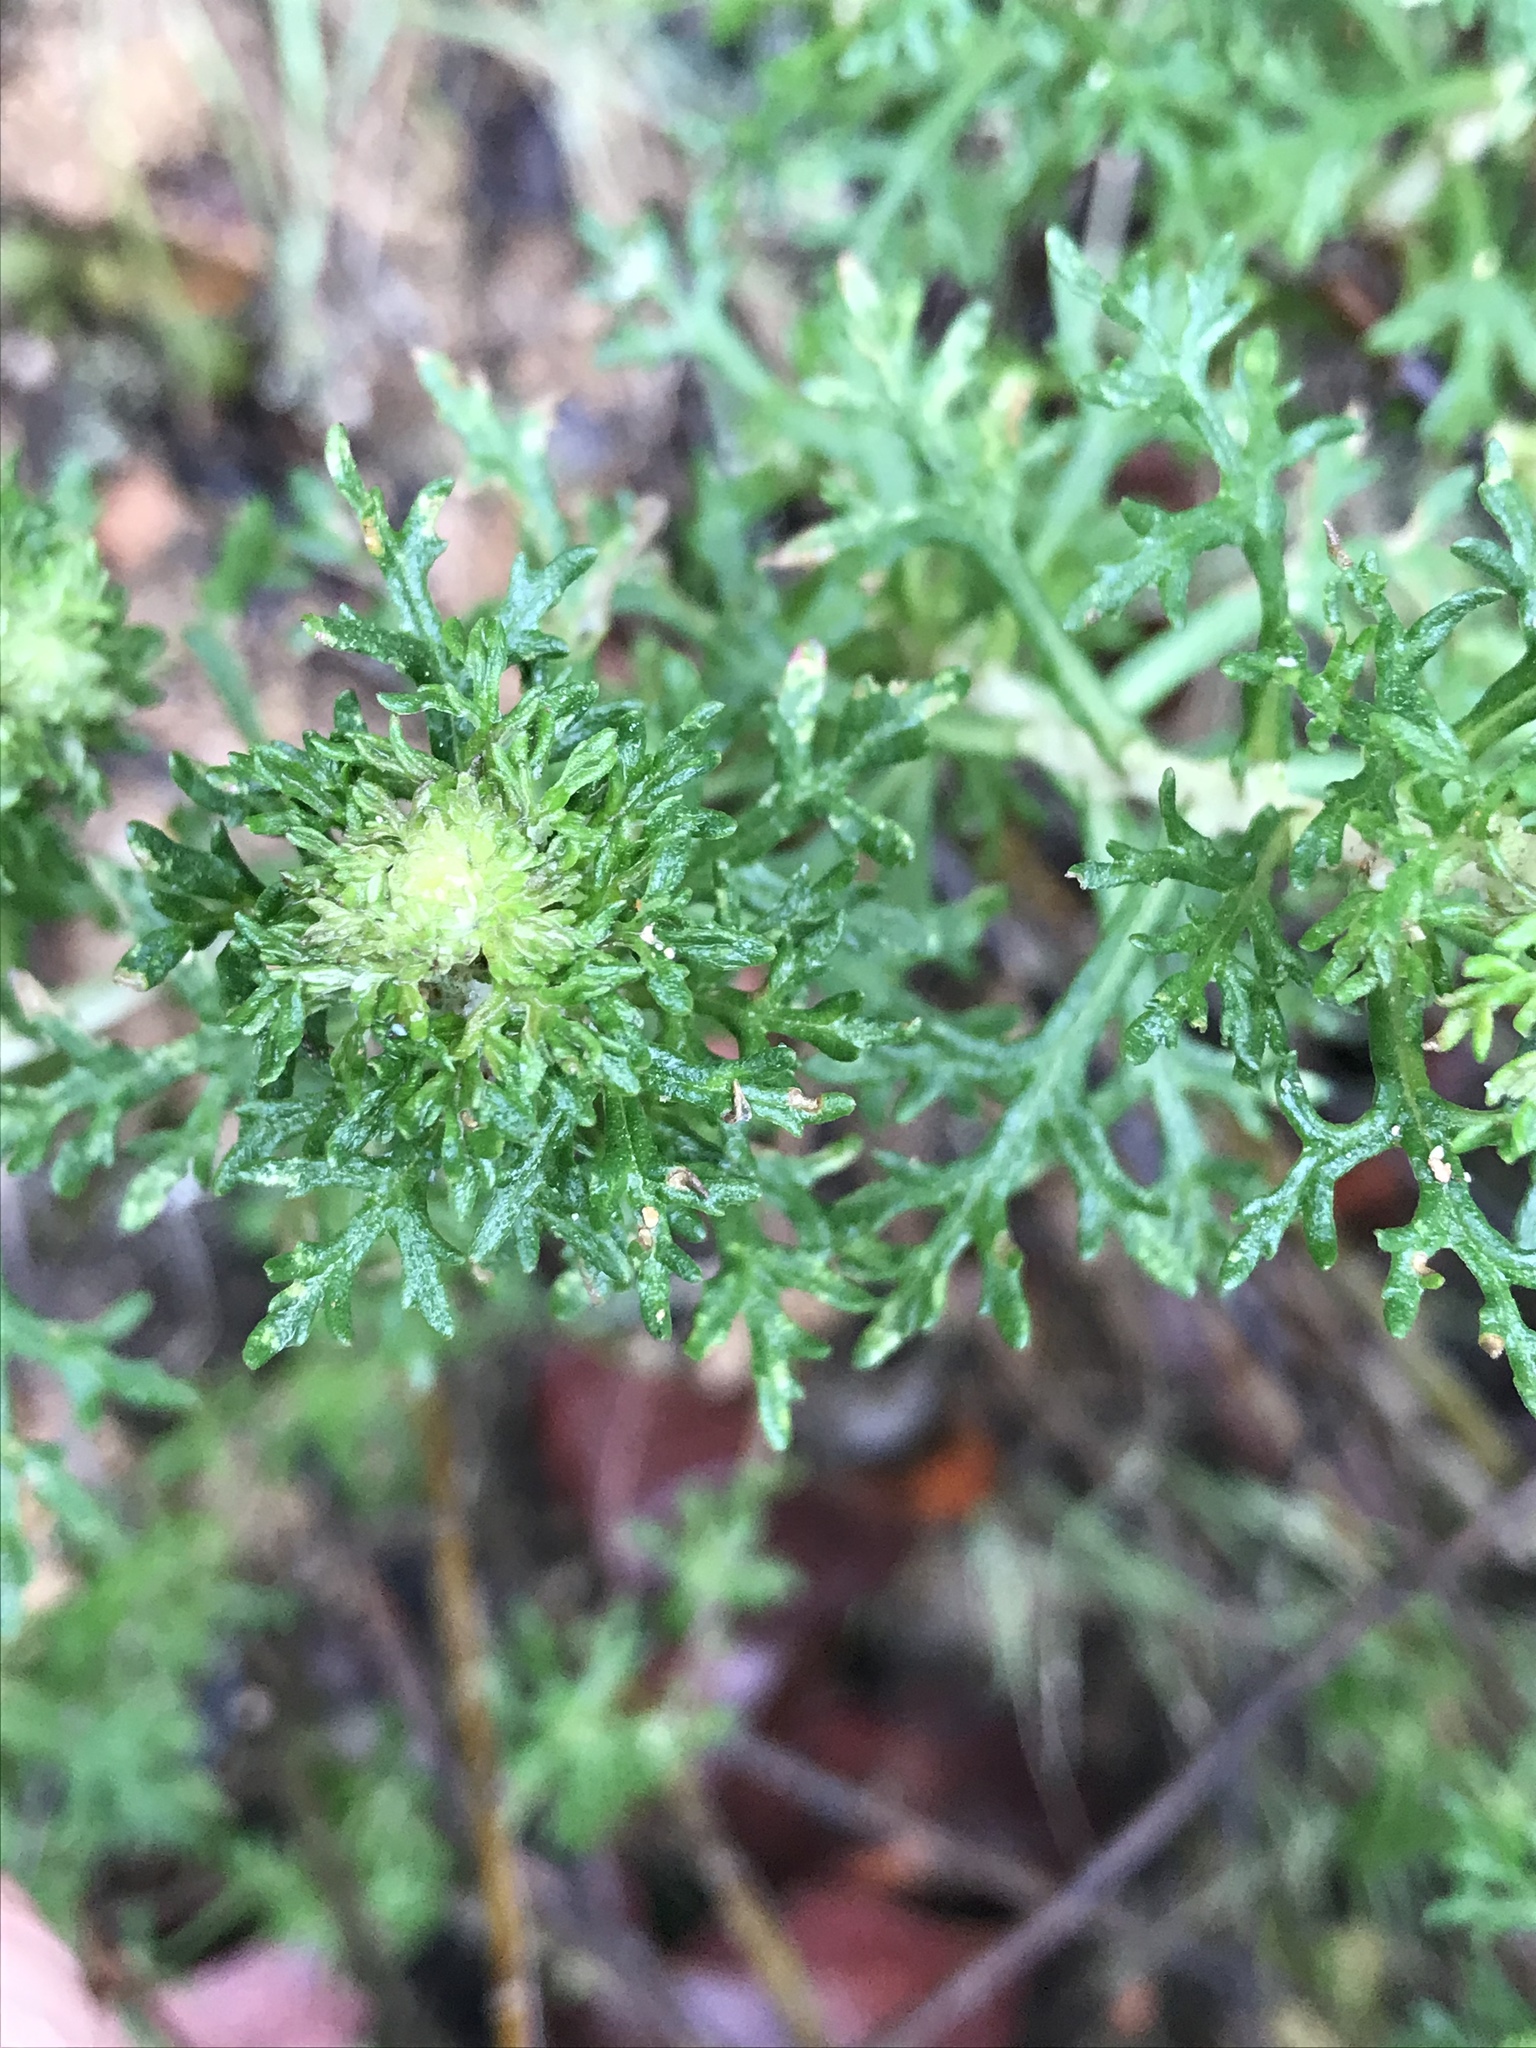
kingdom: Plantae
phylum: Tracheophyta
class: Magnoliopsida
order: Asterales
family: Asteraceae
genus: Eriophyllum
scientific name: Eriophyllum confertiflorum
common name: Golden-yarrow
